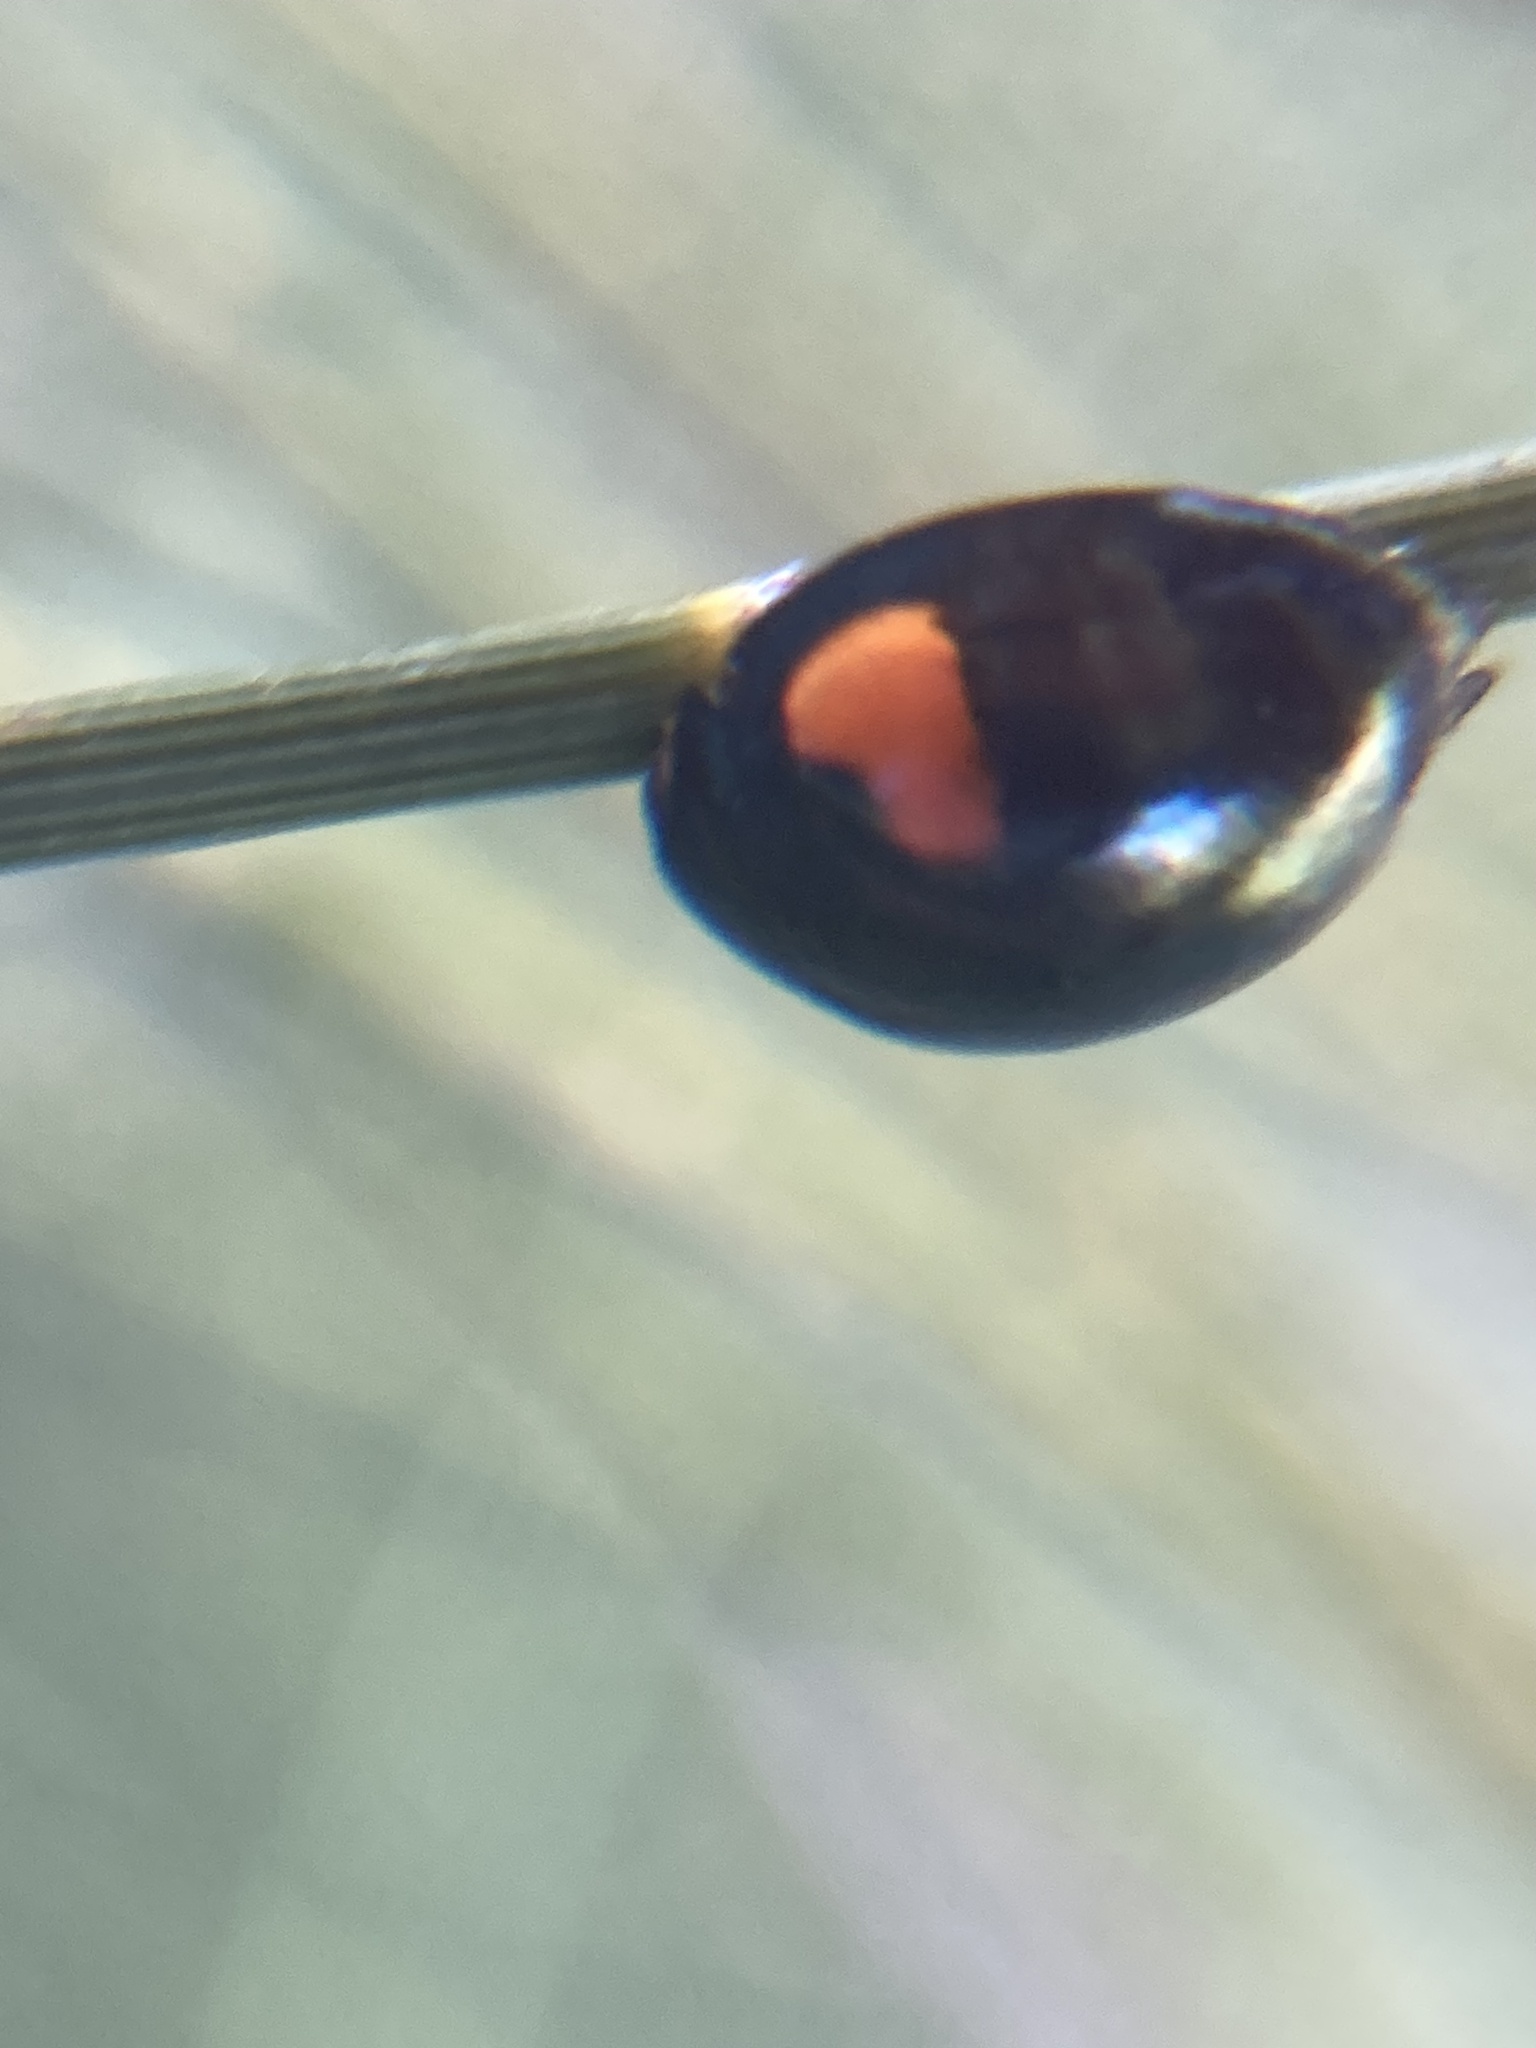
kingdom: Animalia
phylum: Arthropoda
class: Insecta
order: Coleoptera
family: Coccinellidae
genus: Orcus
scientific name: Orcus
